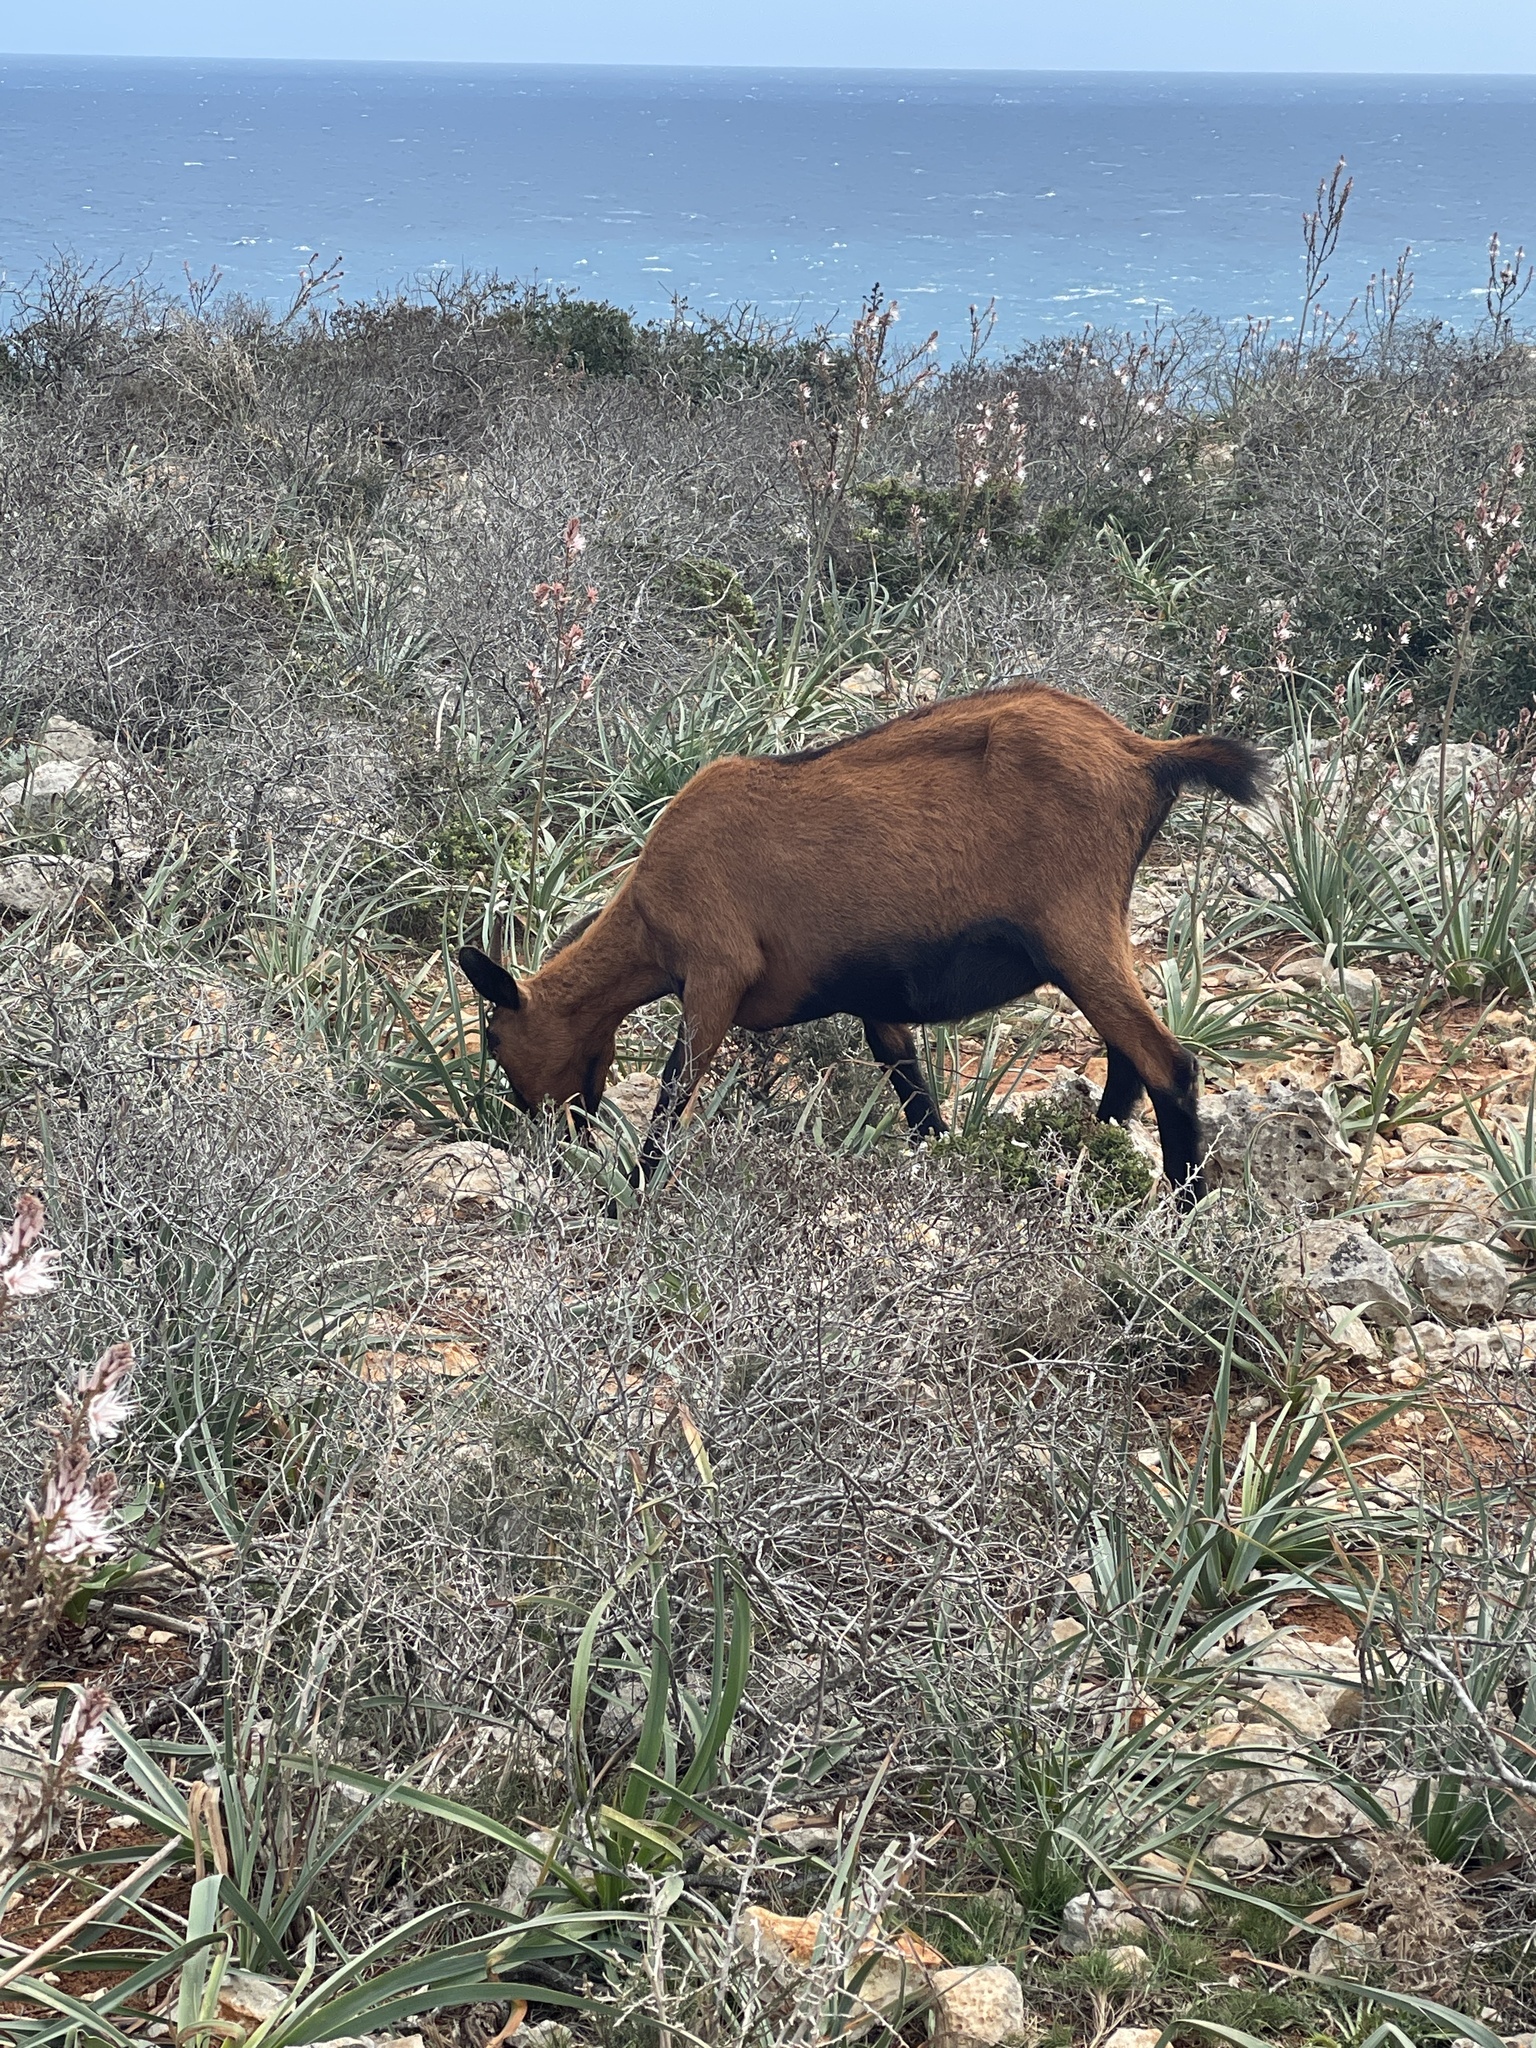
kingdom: Animalia
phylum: Chordata
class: Mammalia
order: Artiodactyla
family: Bovidae
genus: Capra
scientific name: Capra hircus
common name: Domestic goat
